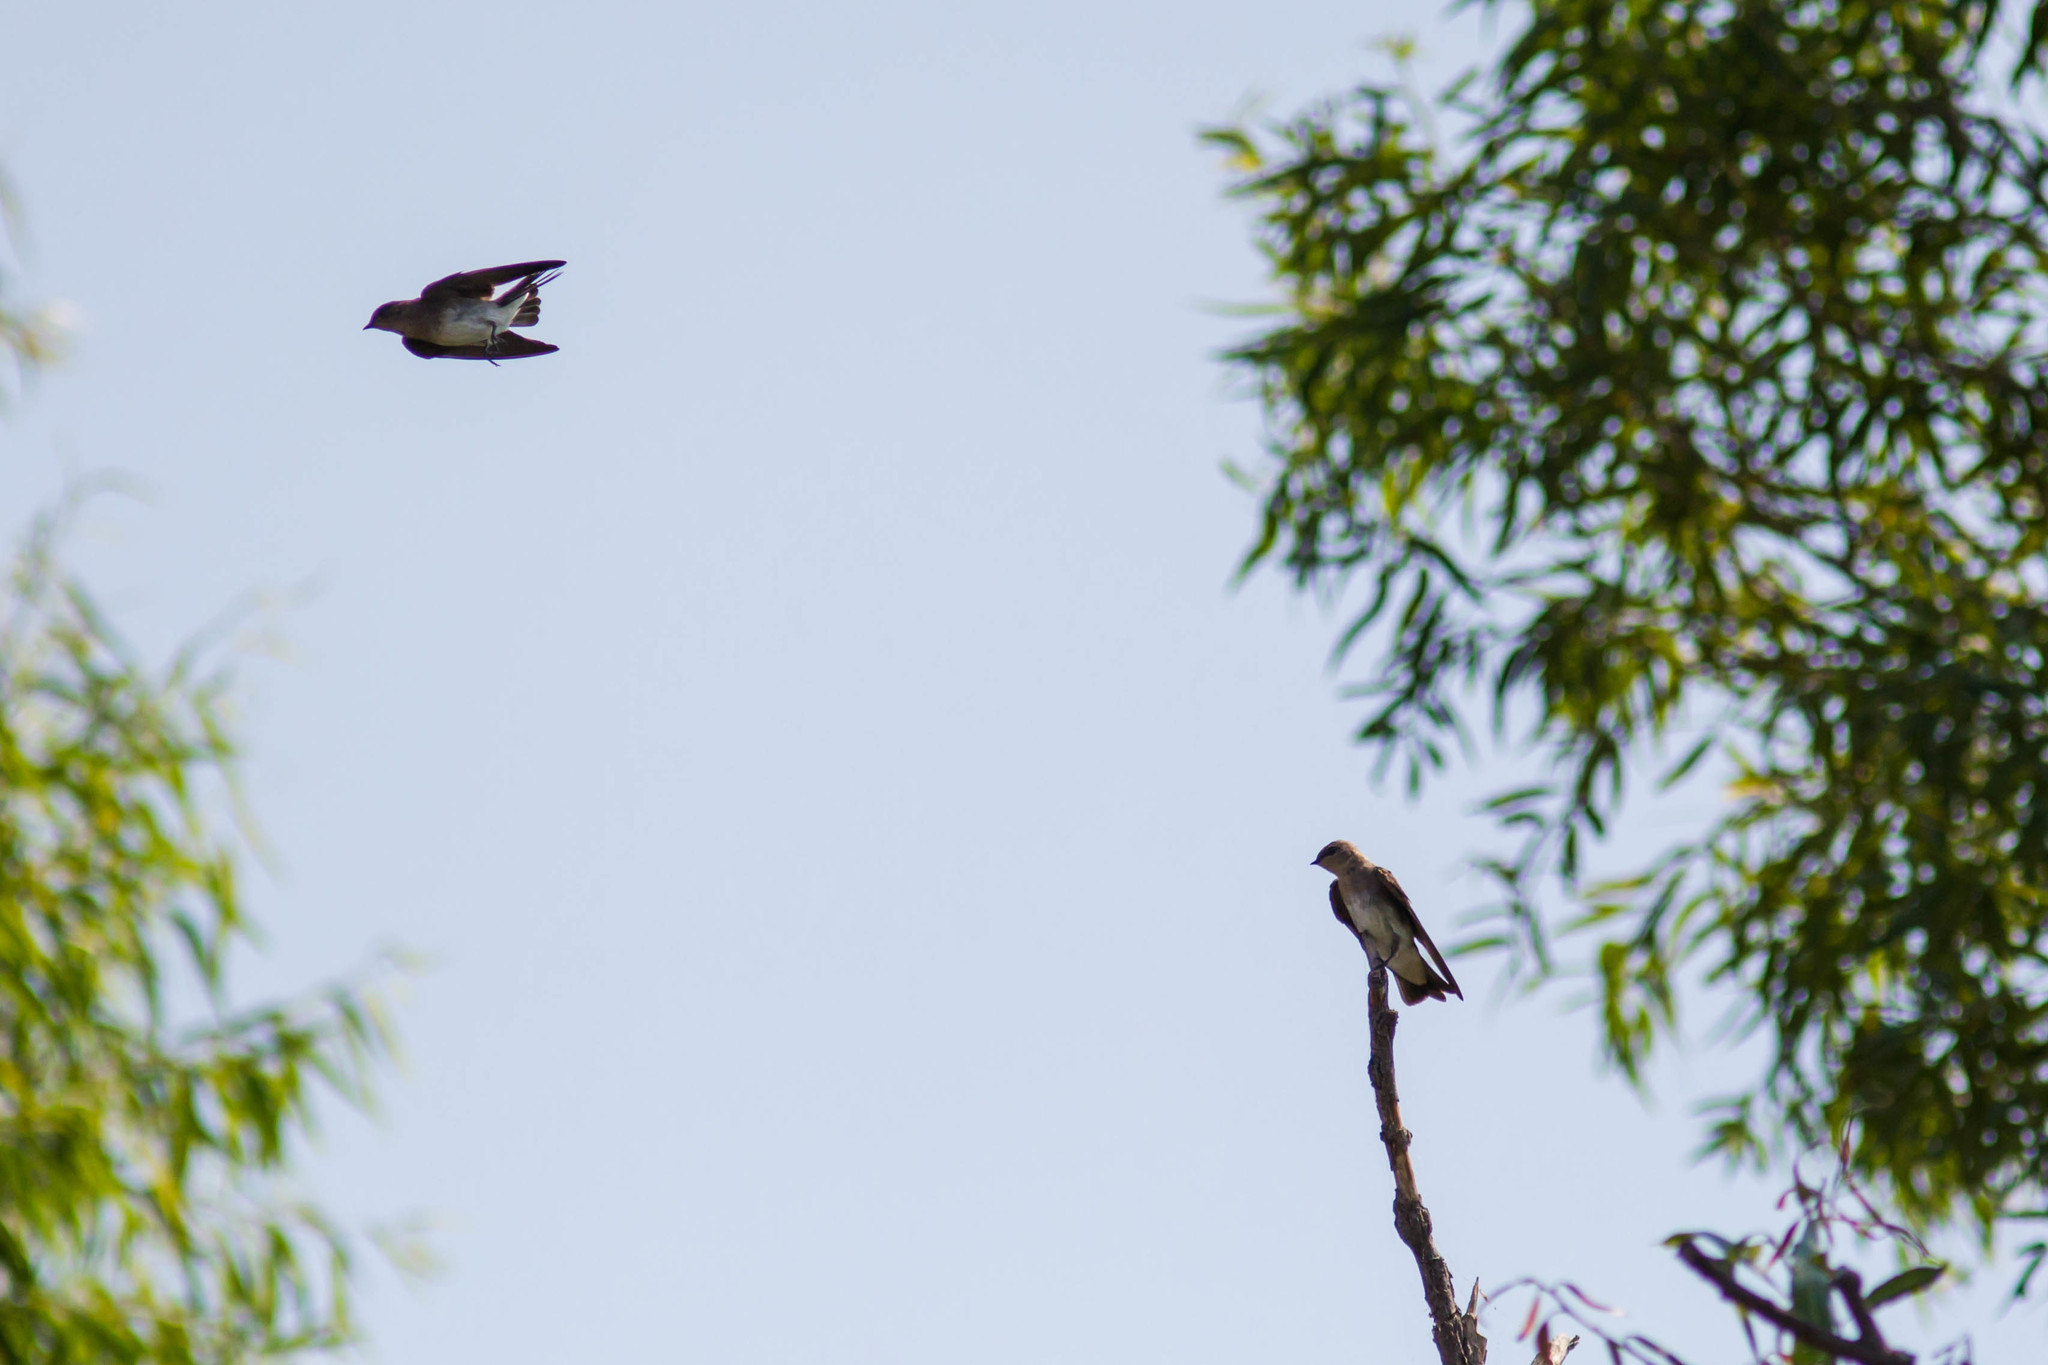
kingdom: Animalia
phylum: Chordata
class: Aves
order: Passeriformes
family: Hirundinidae
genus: Stelgidopteryx
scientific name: Stelgidopteryx serripennis
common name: Northern rough-winged swallow
